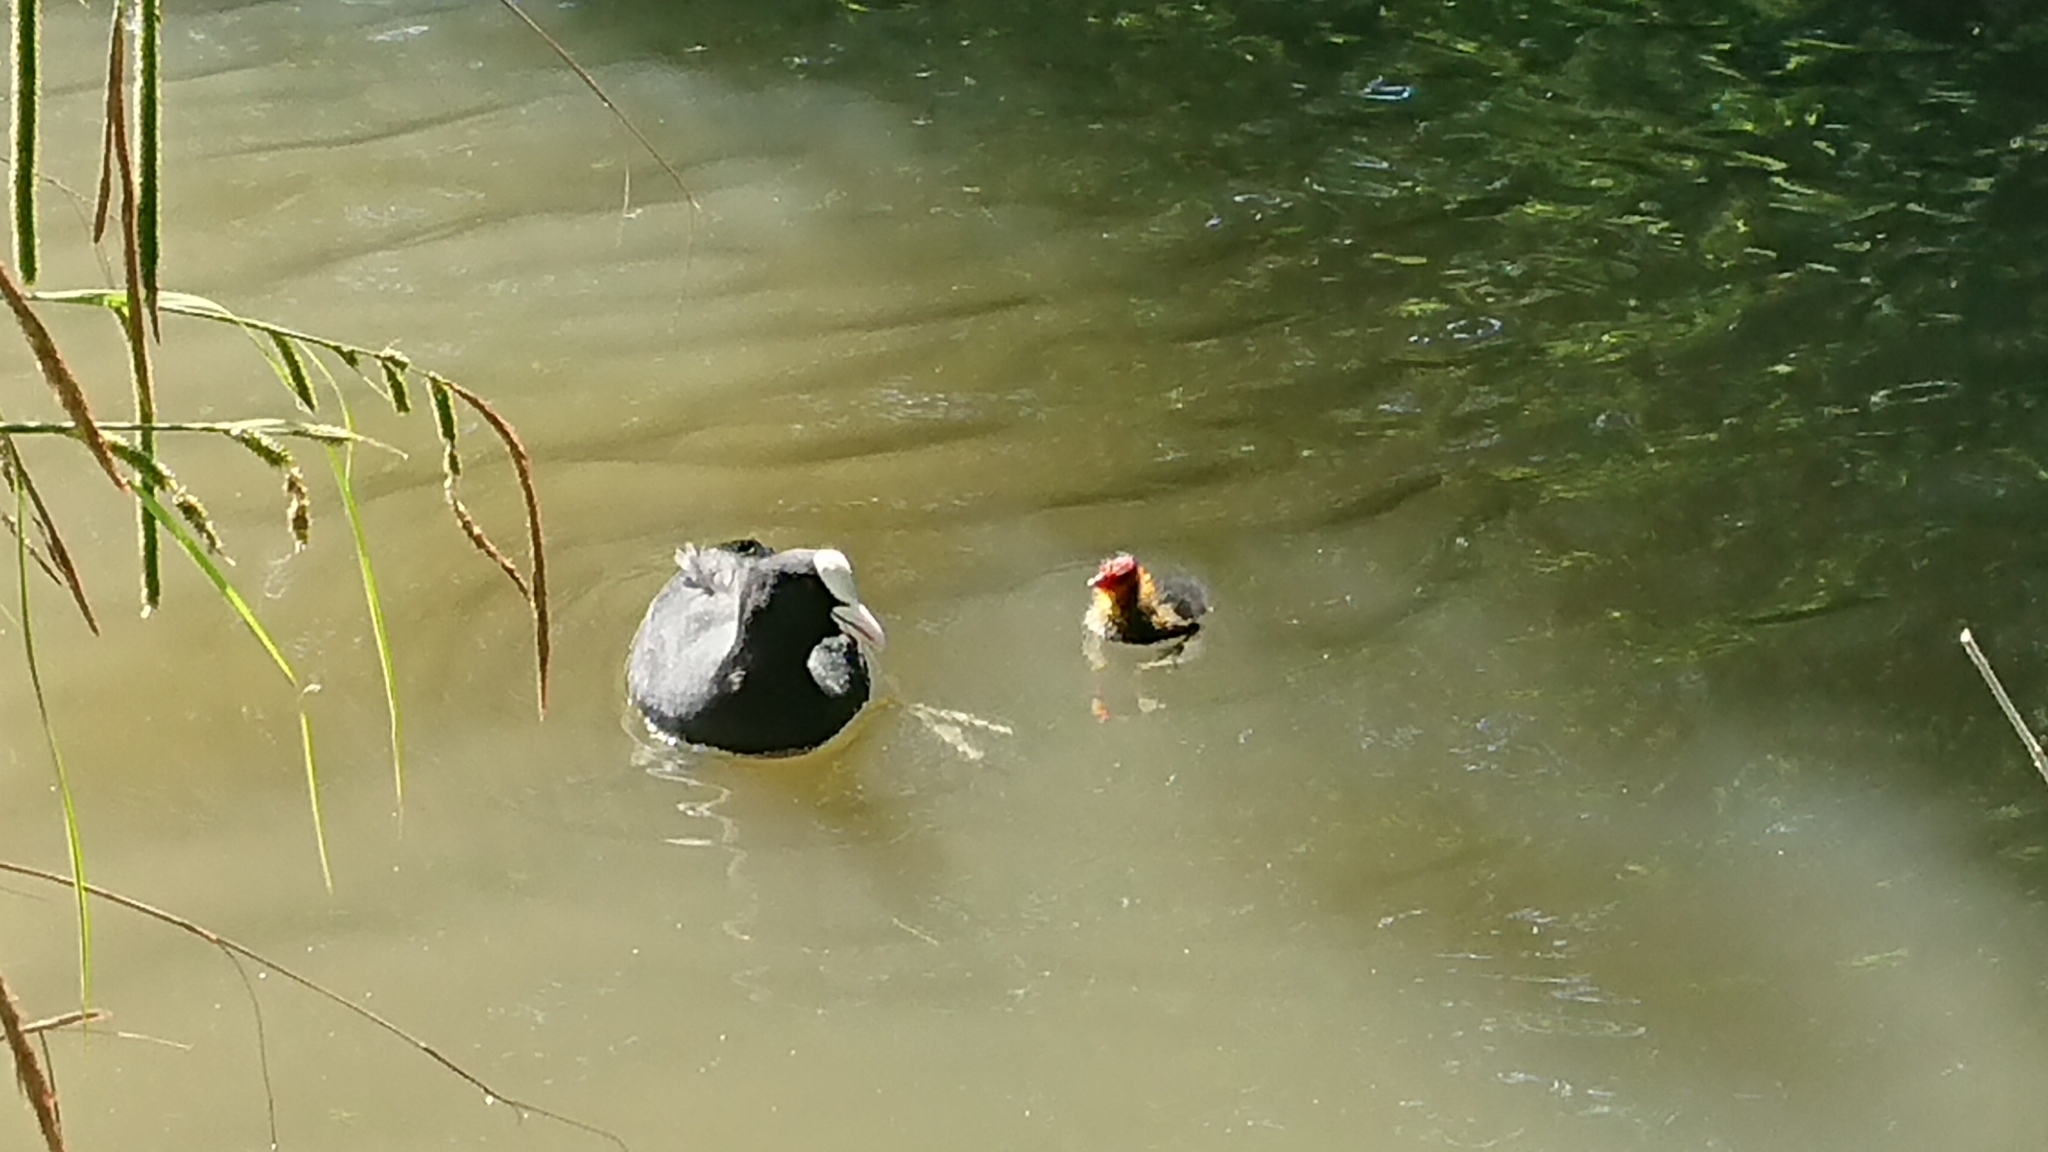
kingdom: Animalia
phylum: Chordata
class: Aves
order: Gruiformes
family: Rallidae
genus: Fulica
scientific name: Fulica atra
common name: Eurasian coot
